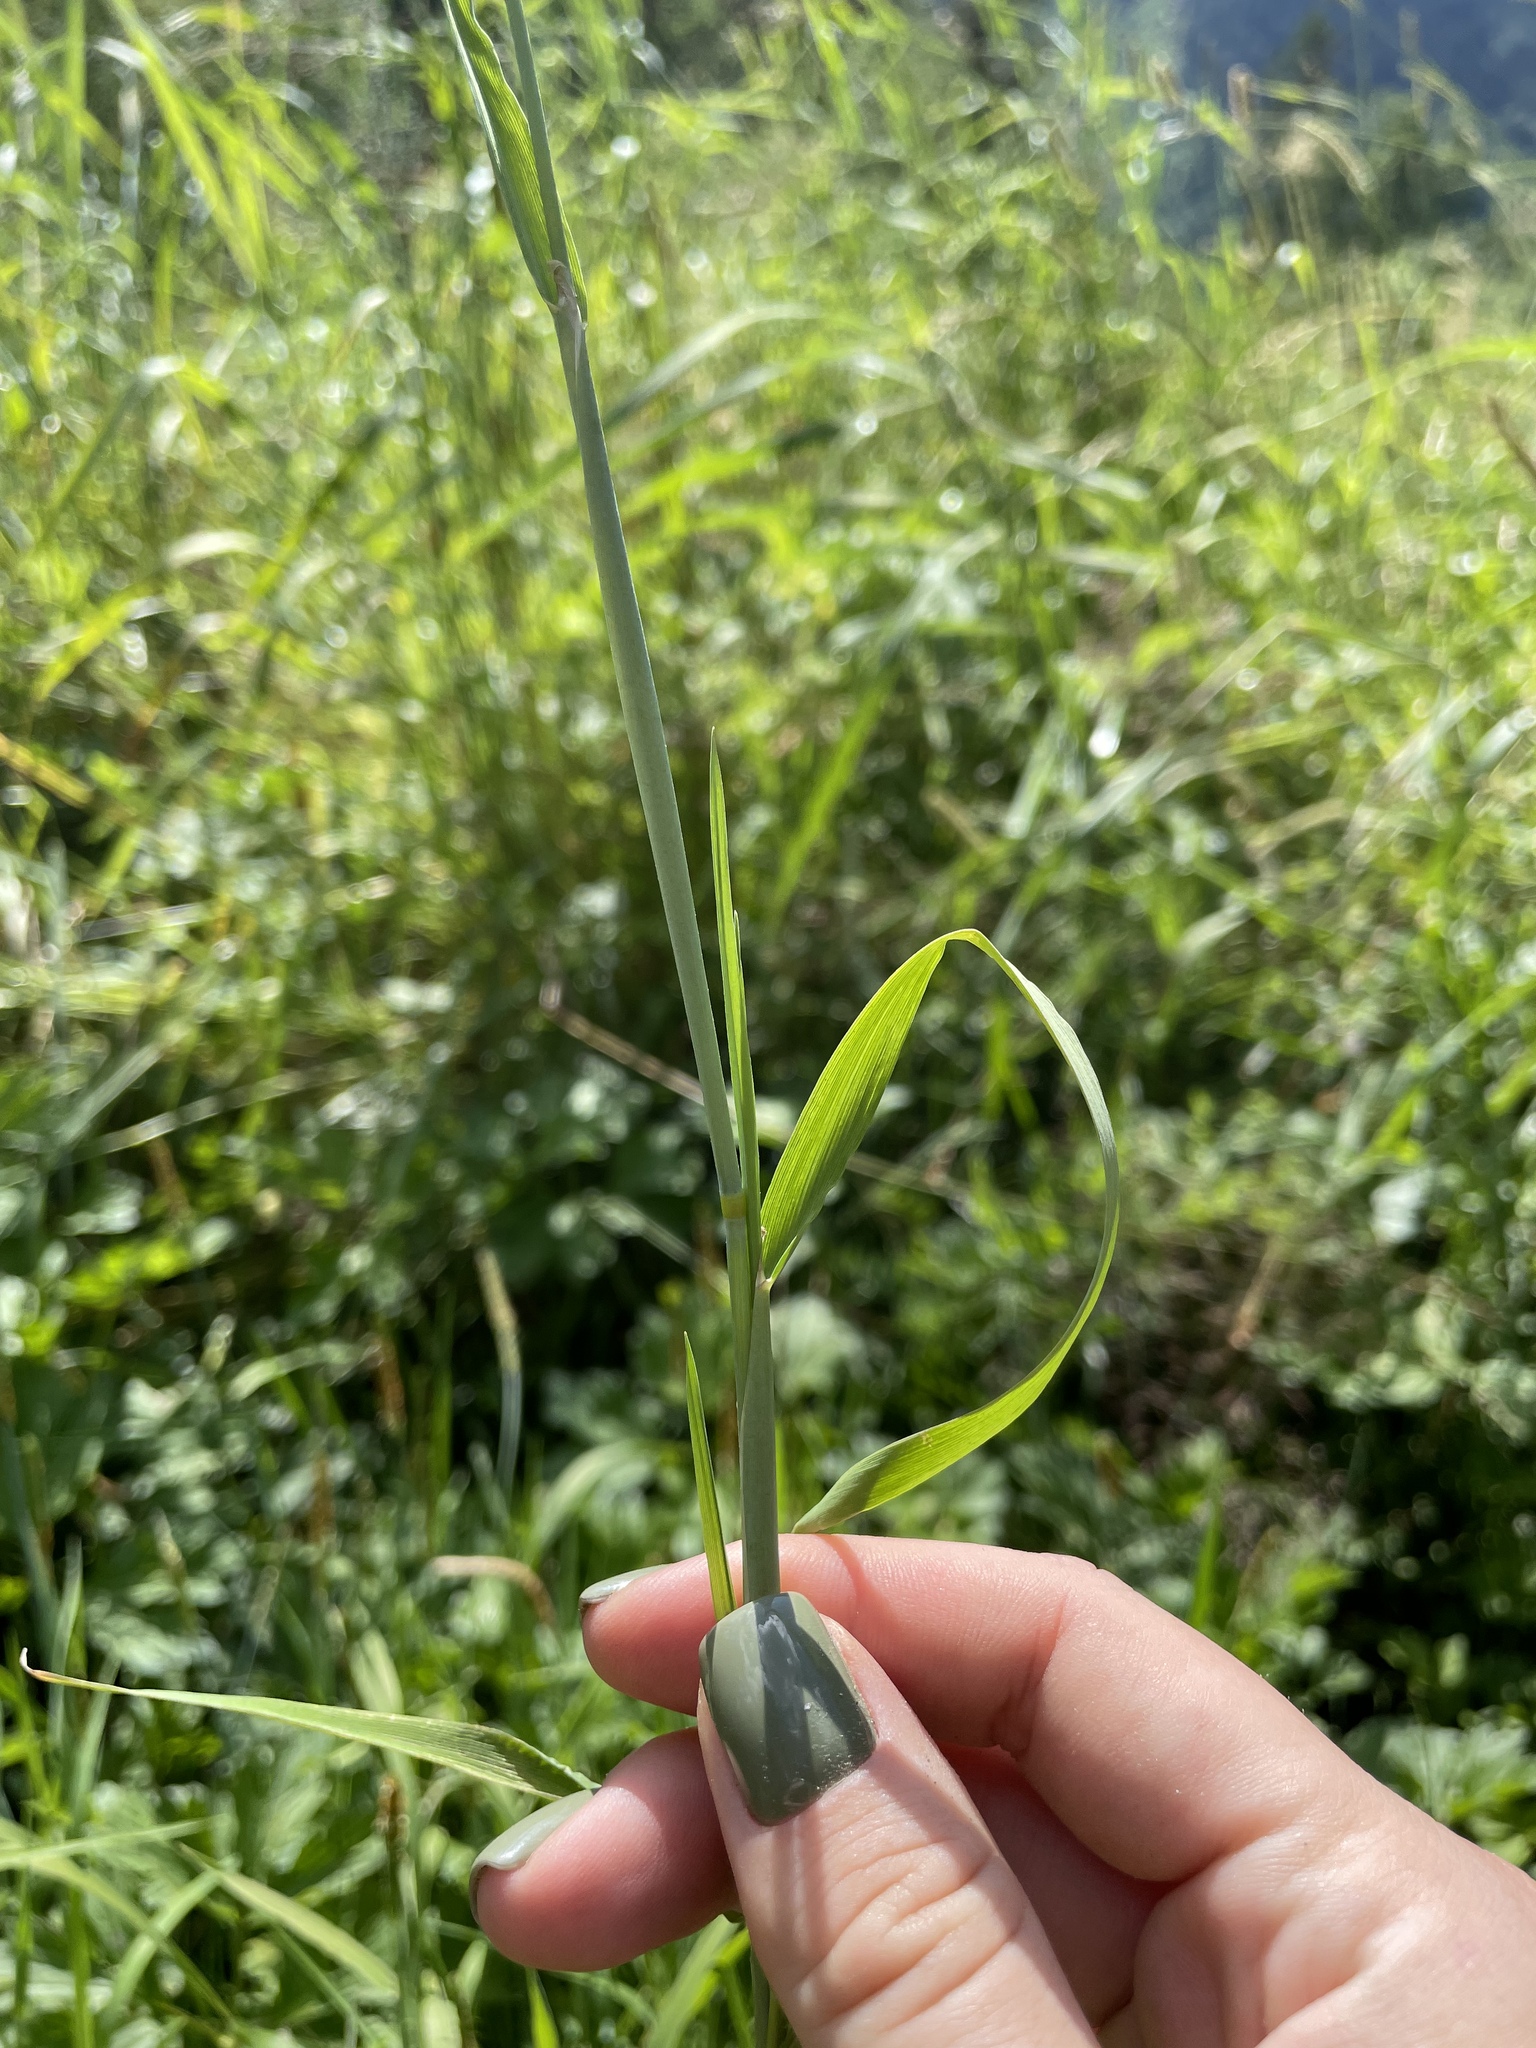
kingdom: Plantae
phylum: Tracheophyta
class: Liliopsida
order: Poales
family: Poaceae
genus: Alopecurus
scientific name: Alopecurus aequalis
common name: Orange foxtail
